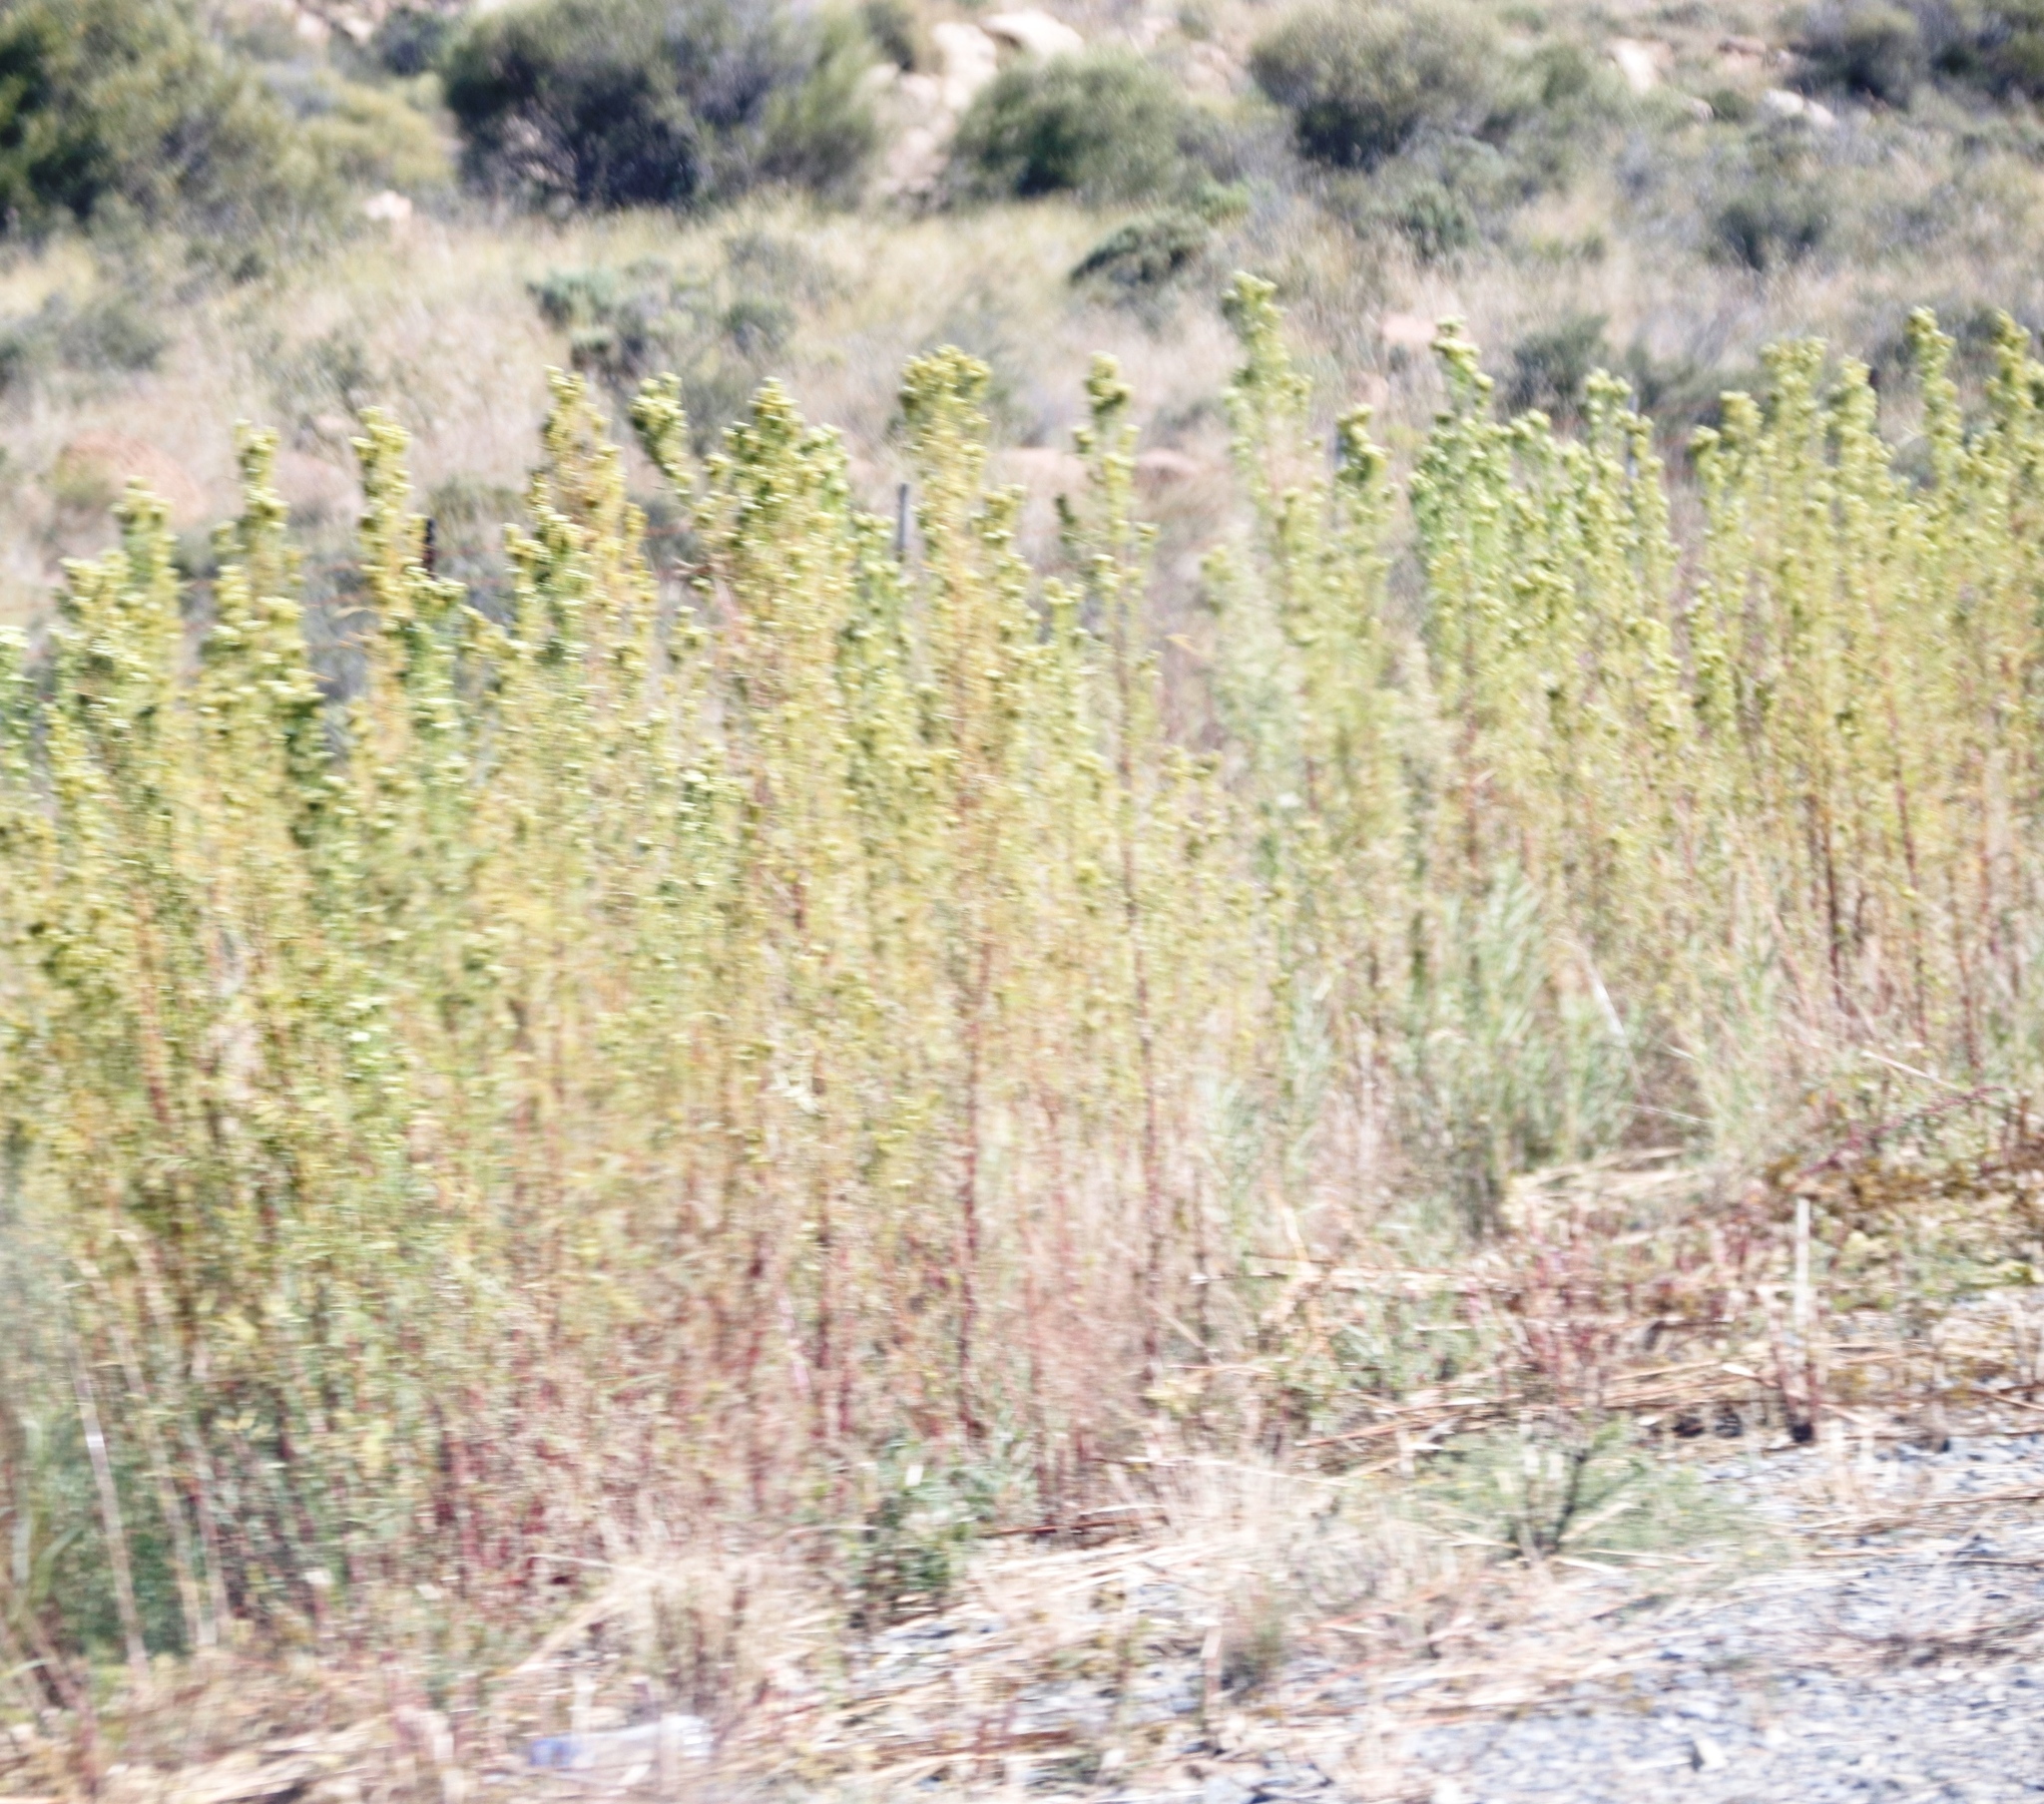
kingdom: Plantae
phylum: Tracheophyta
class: Magnoliopsida
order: Asterales
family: Asteraceae
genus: Tagetes
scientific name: Tagetes minuta
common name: Muster john henry
